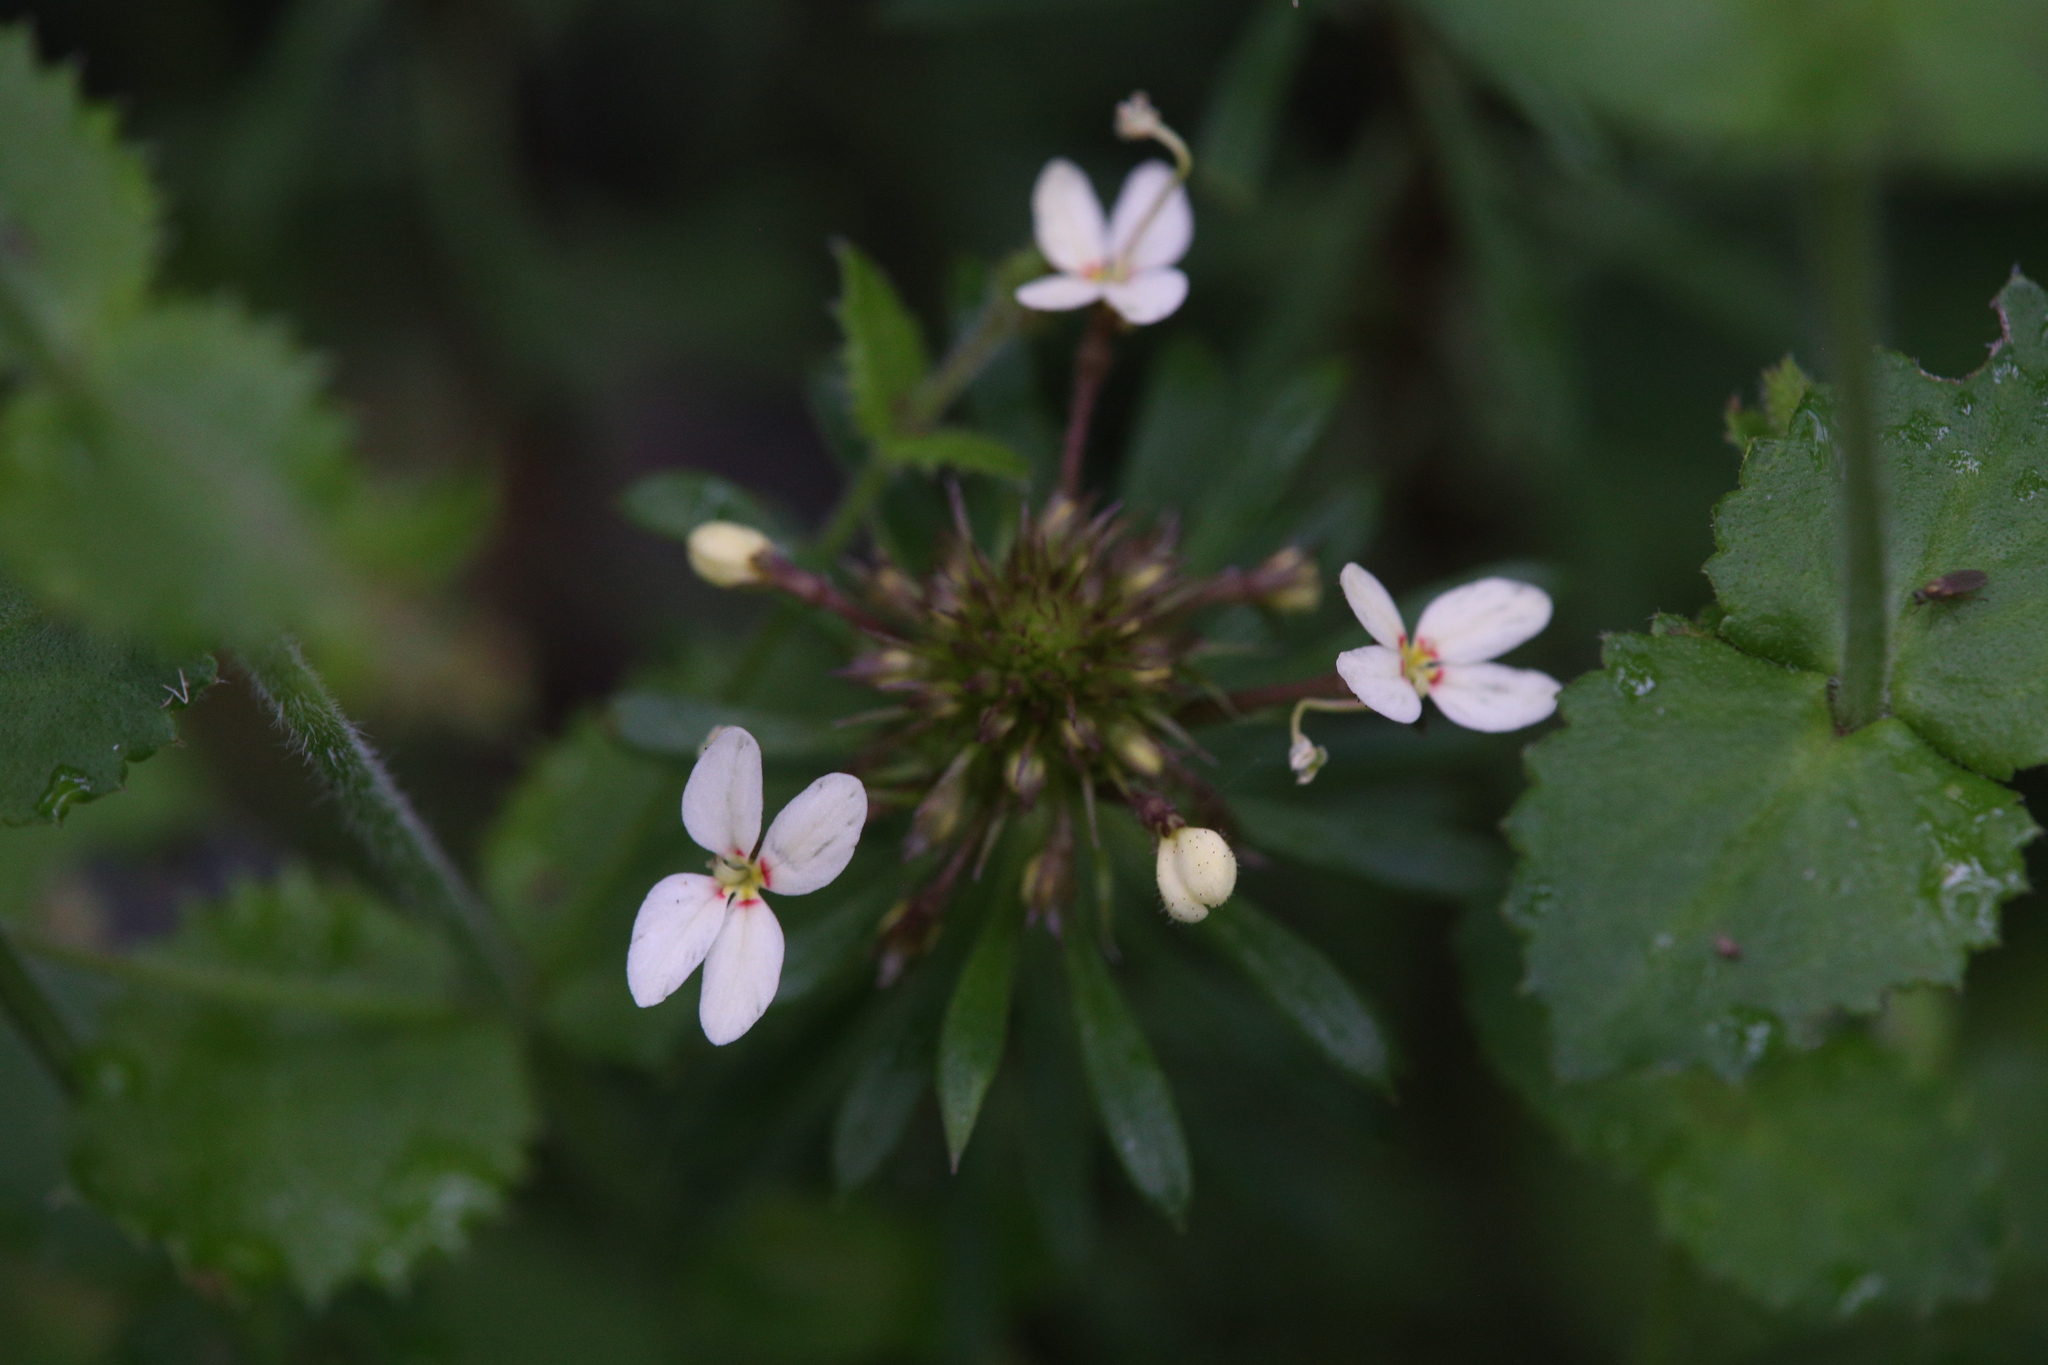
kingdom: Plantae
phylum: Tracheophyta
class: Magnoliopsida
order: Asterales
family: Stylidiaceae
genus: Stylidium
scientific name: Stylidium rhynchocarpum
